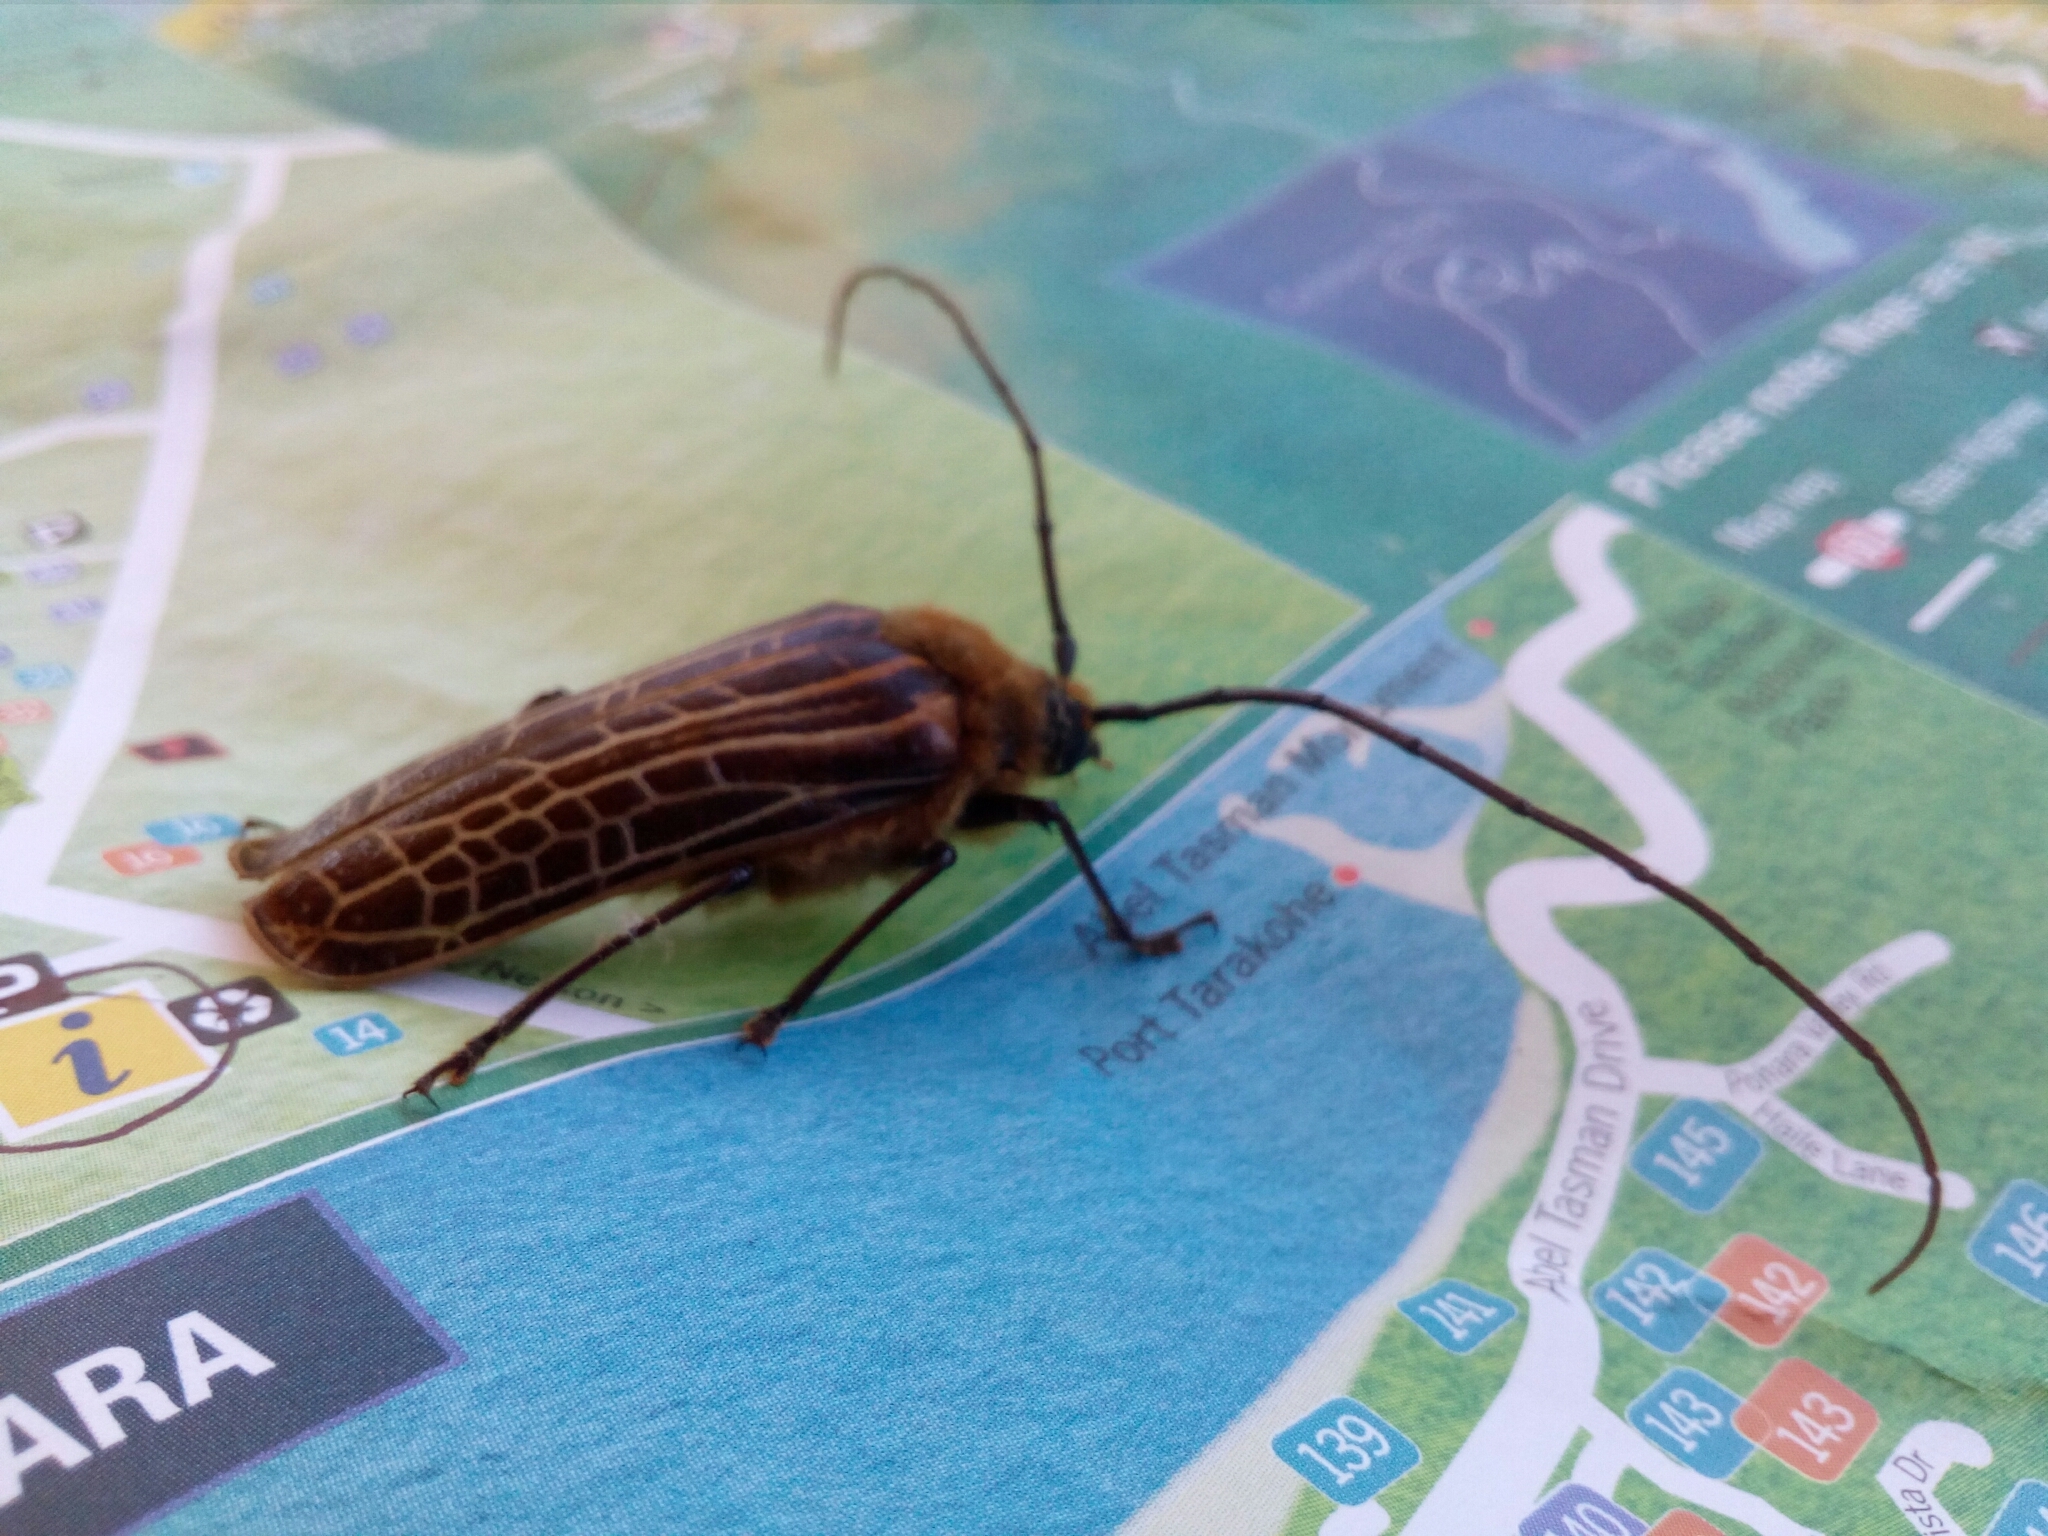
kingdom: Animalia
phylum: Arthropoda
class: Insecta
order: Coleoptera
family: Cerambycidae
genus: Prionoplus
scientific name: Prionoplus reticularis
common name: Huhu beetle
